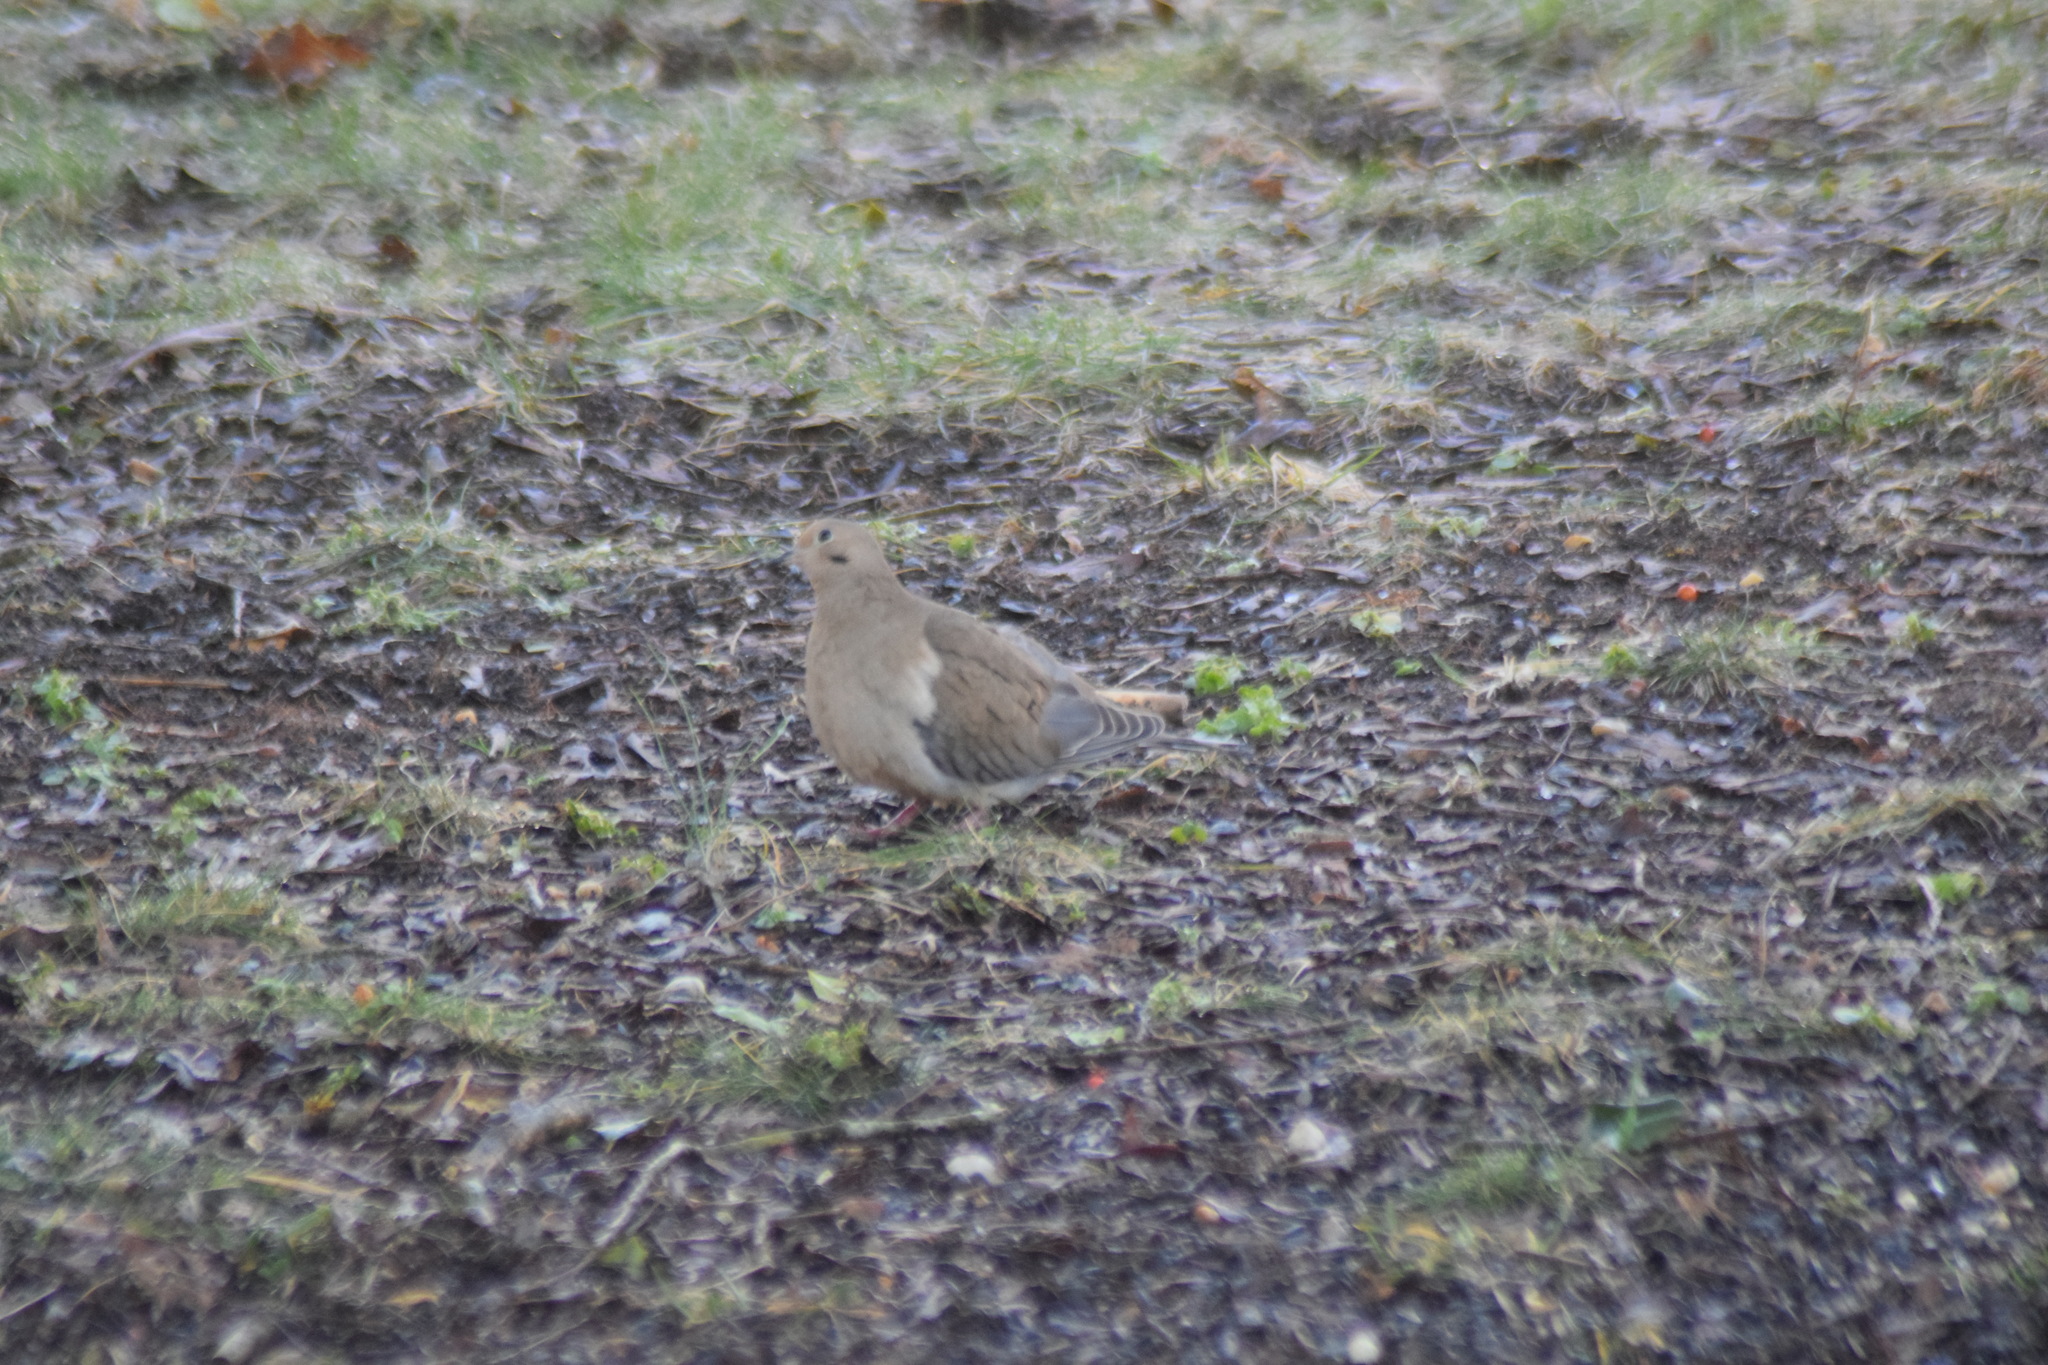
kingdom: Animalia
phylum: Chordata
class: Aves
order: Columbiformes
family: Columbidae
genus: Zenaida
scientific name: Zenaida macroura
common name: Mourning dove
